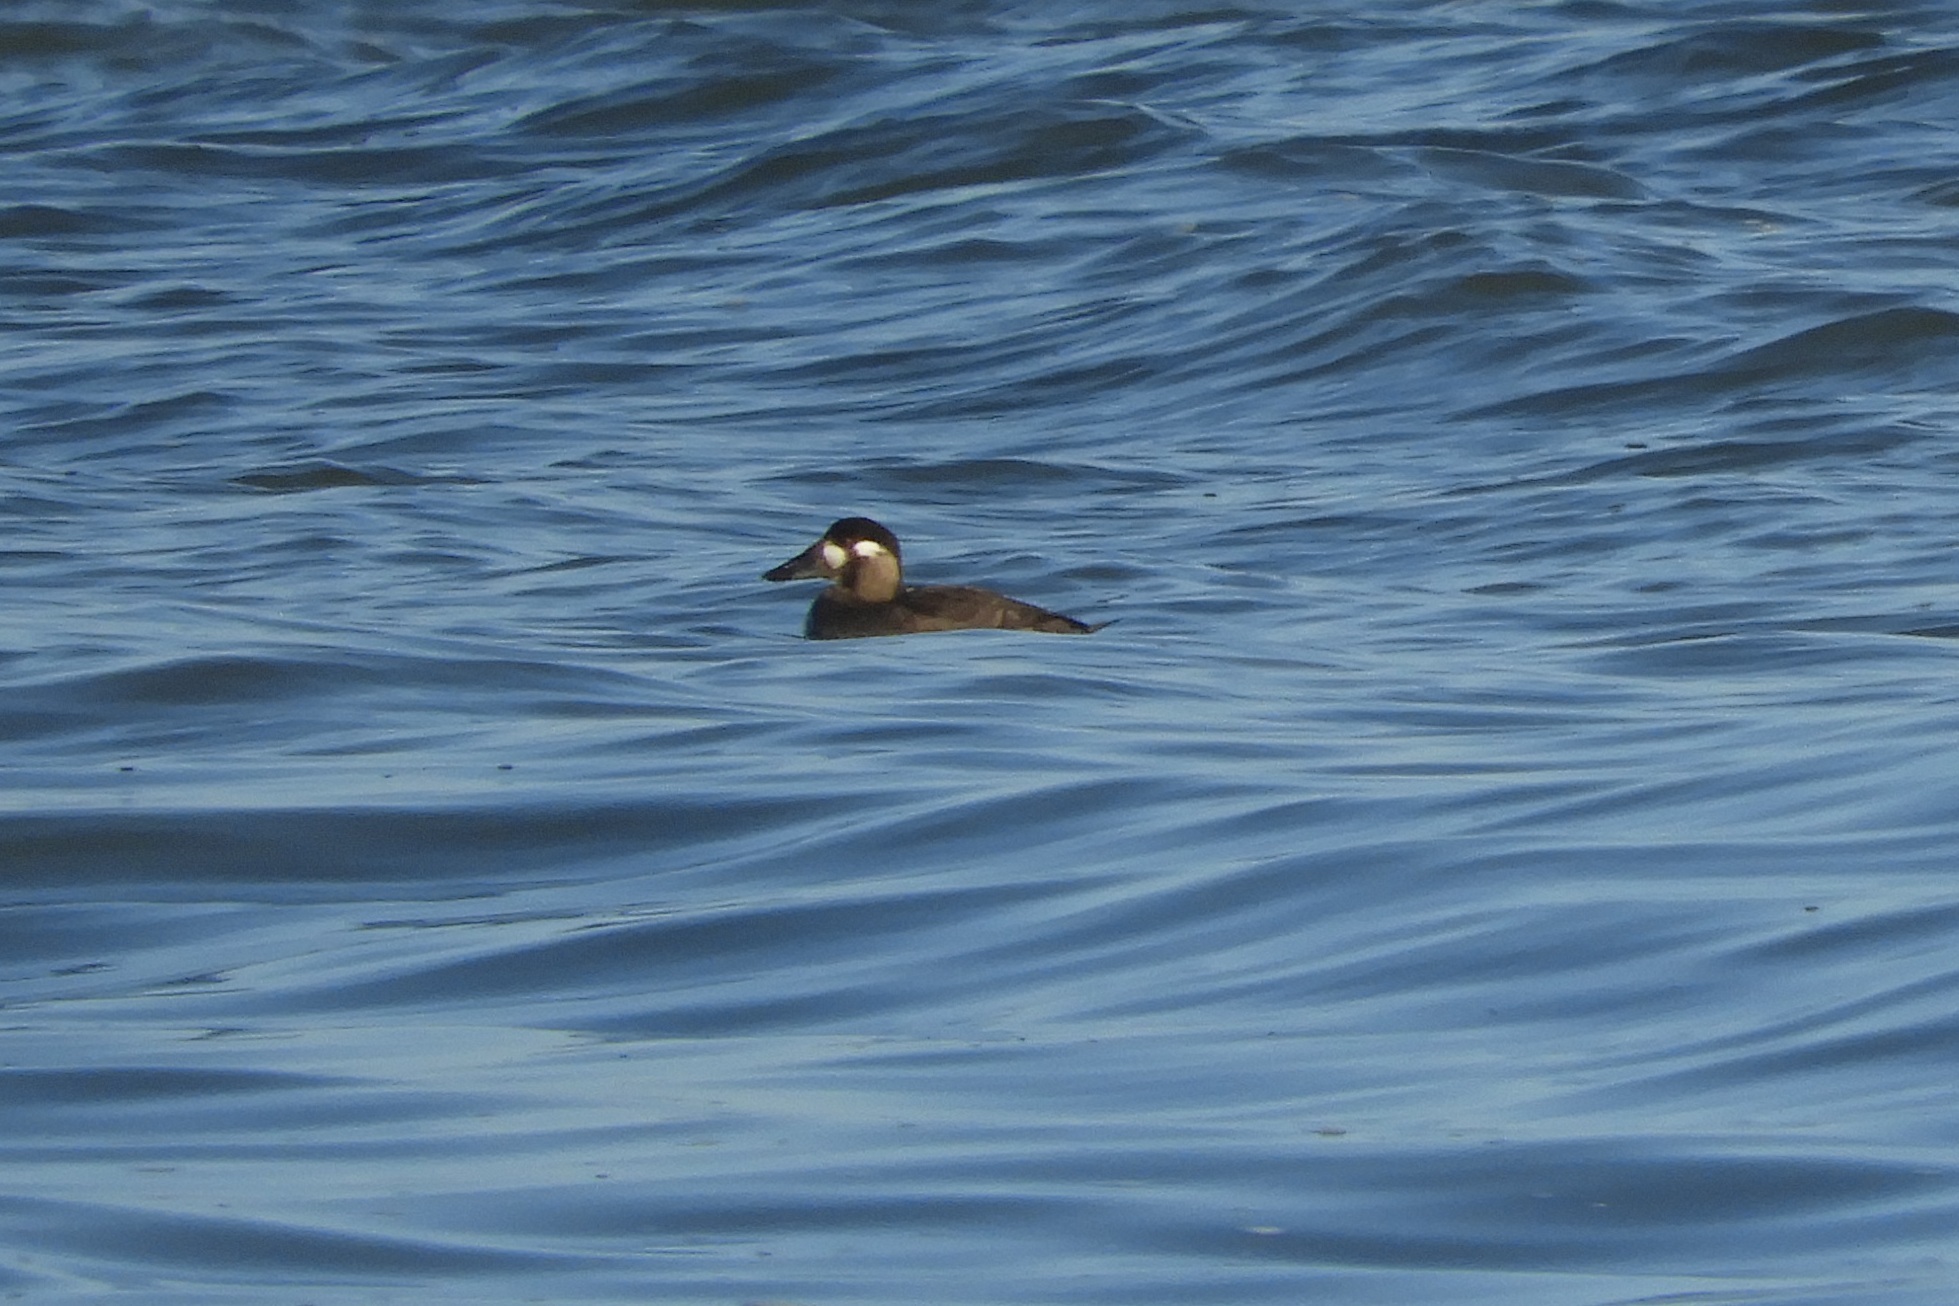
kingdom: Animalia
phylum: Chordata
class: Aves
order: Anseriformes
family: Anatidae
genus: Melanitta
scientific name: Melanitta perspicillata
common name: Surf scoter
